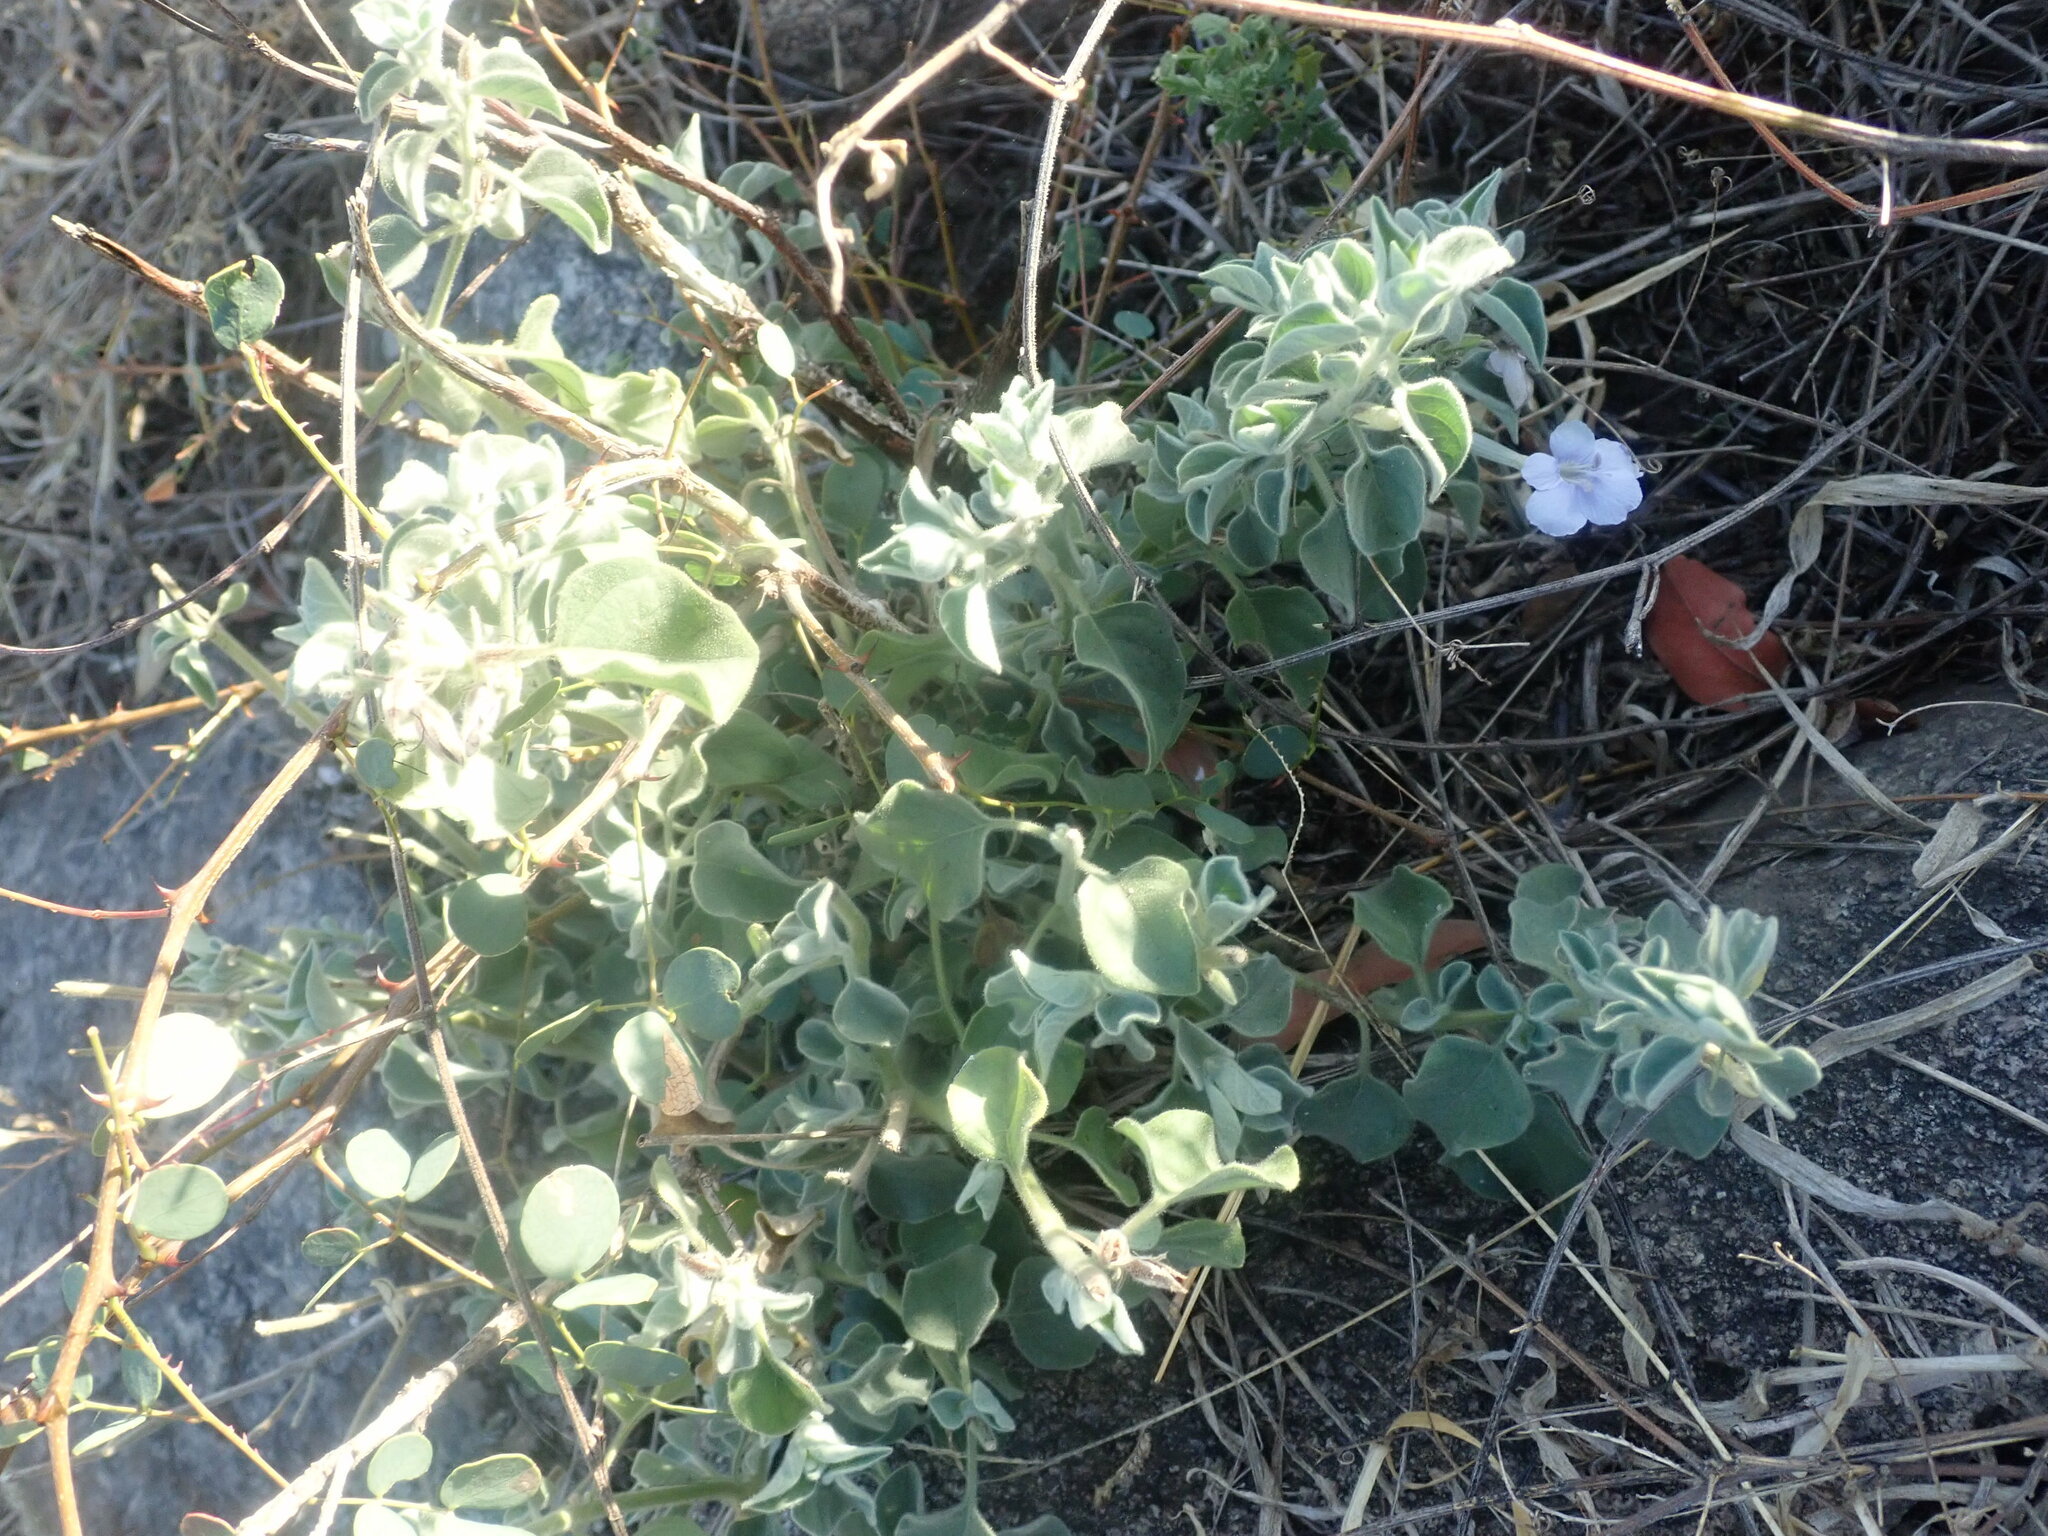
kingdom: Plantae
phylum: Tracheophyta
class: Magnoliopsida
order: Lamiales
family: Acanthaceae
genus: Barleria
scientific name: Barleria heterotricha
